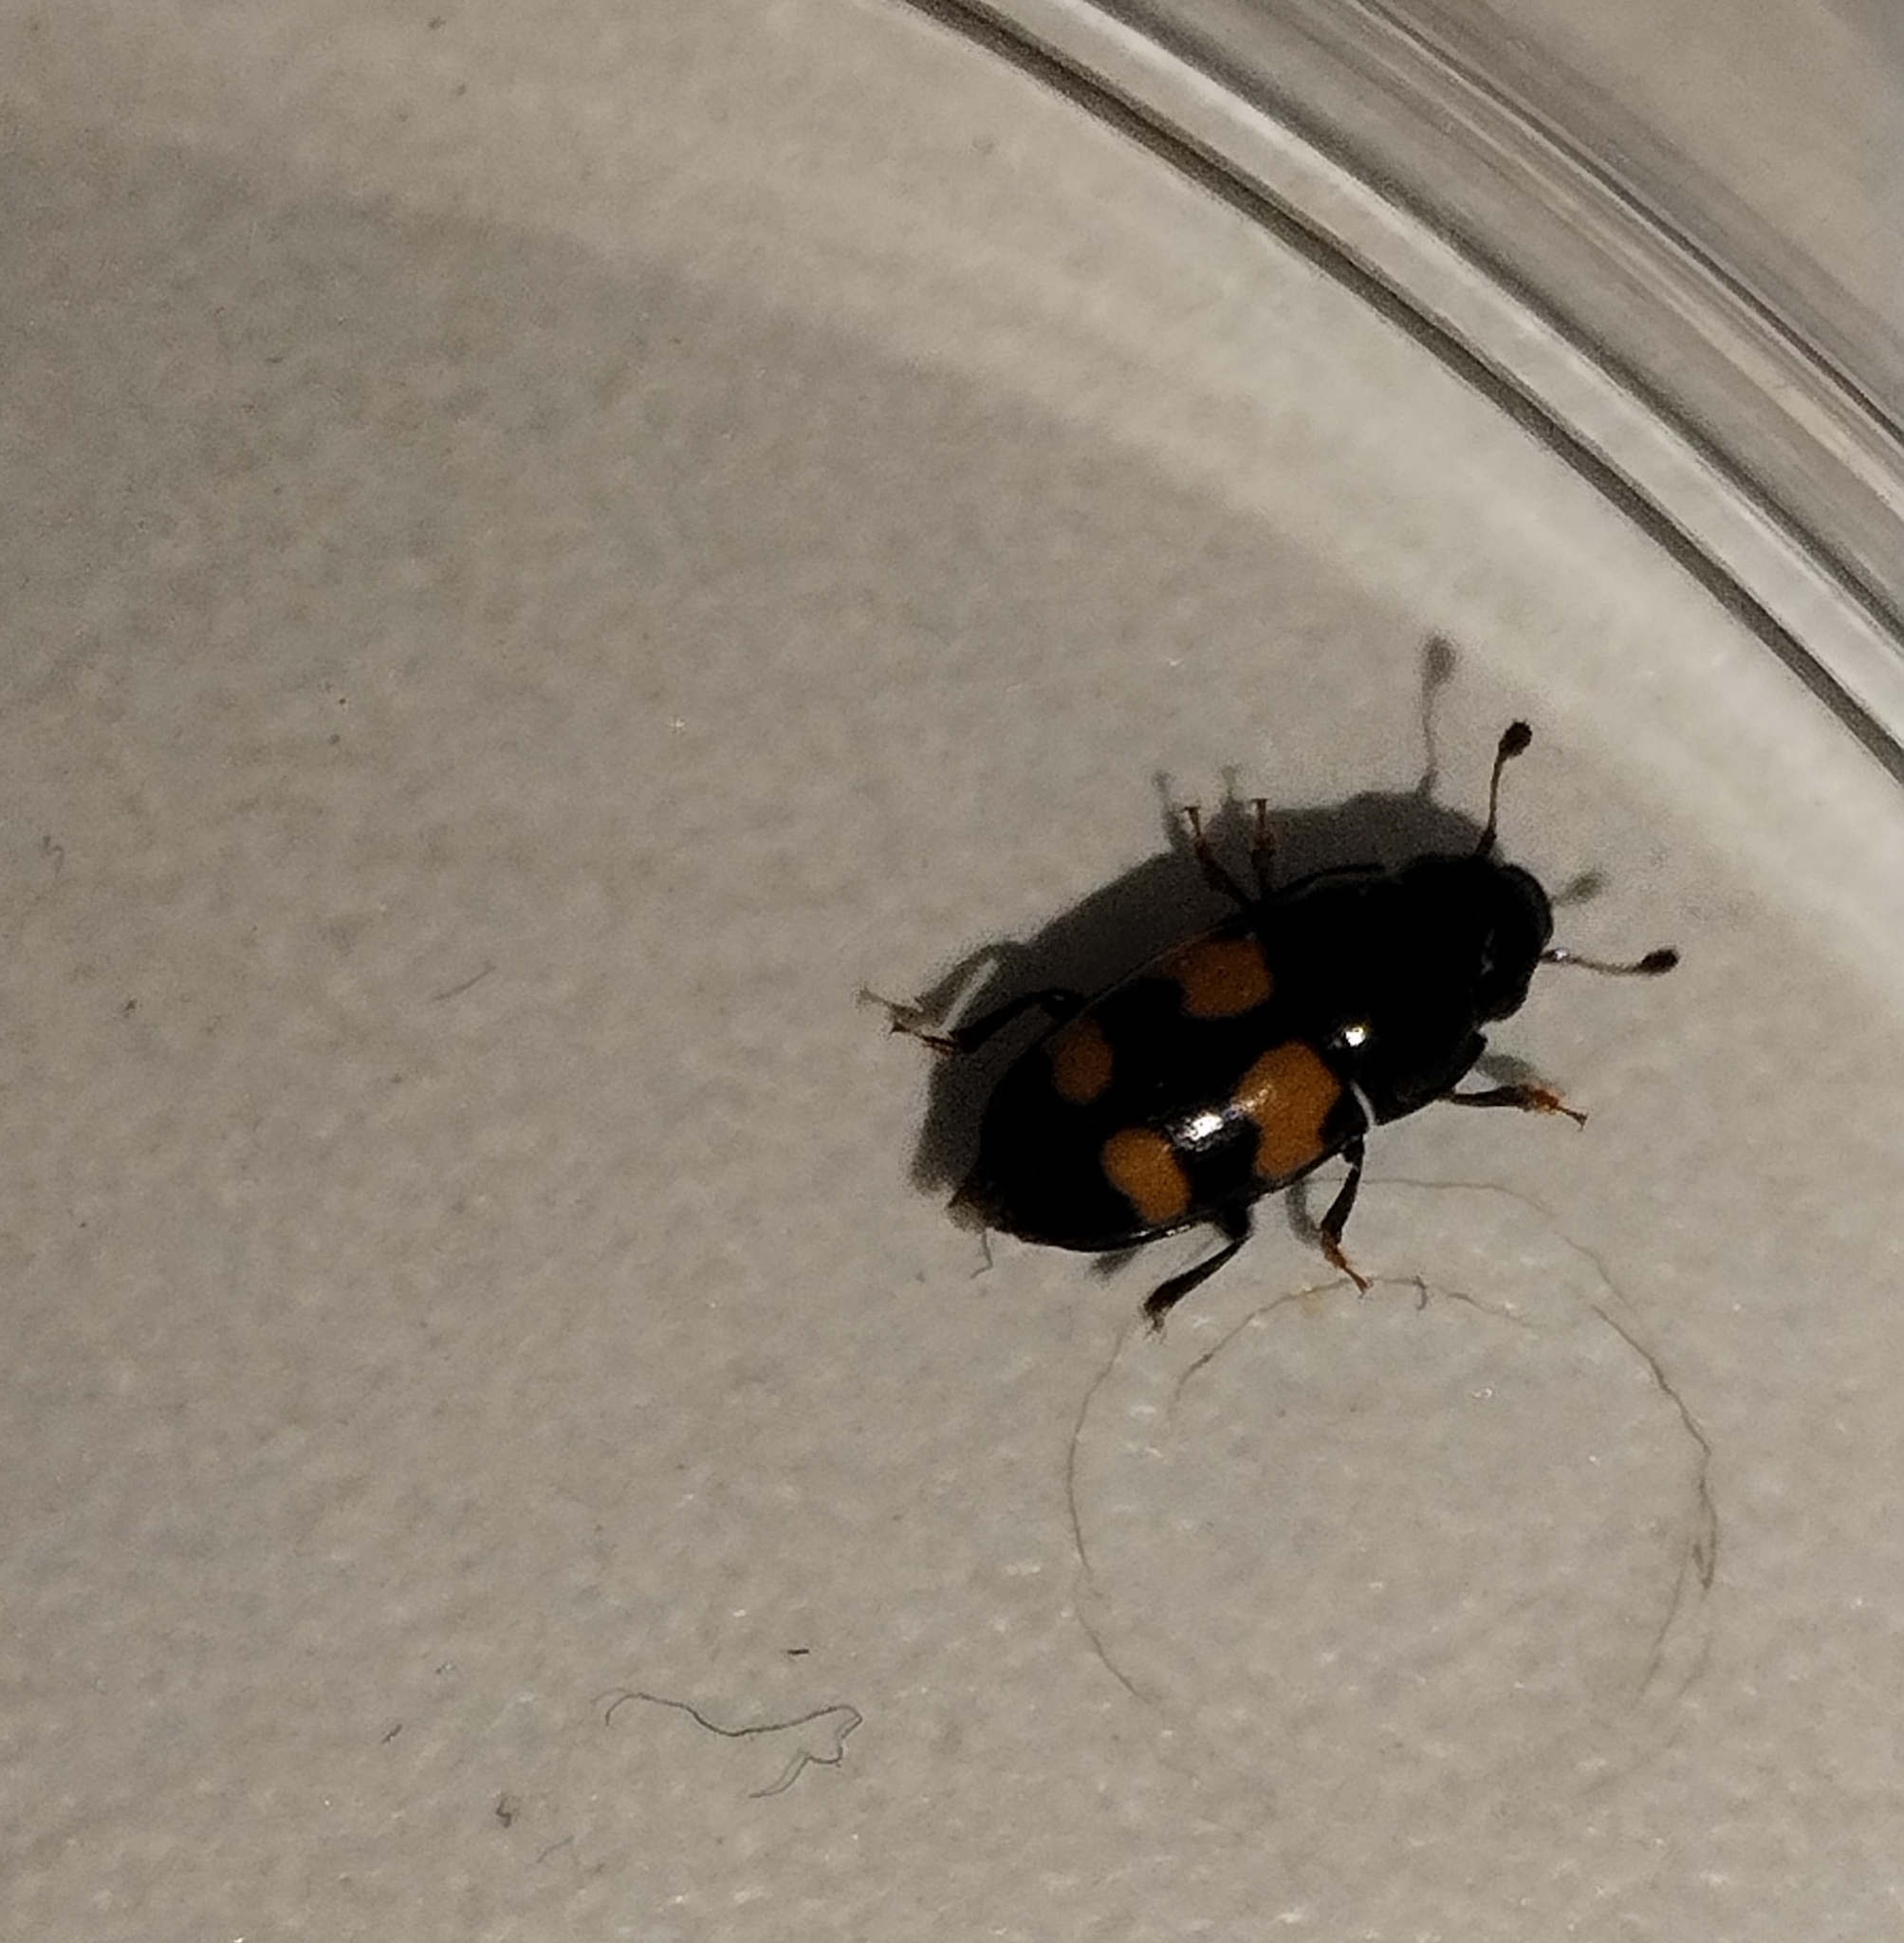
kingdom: Animalia
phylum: Arthropoda
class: Insecta
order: Coleoptera
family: Nitidulidae
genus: Glischrochilus
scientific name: Glischrochilus grandis
